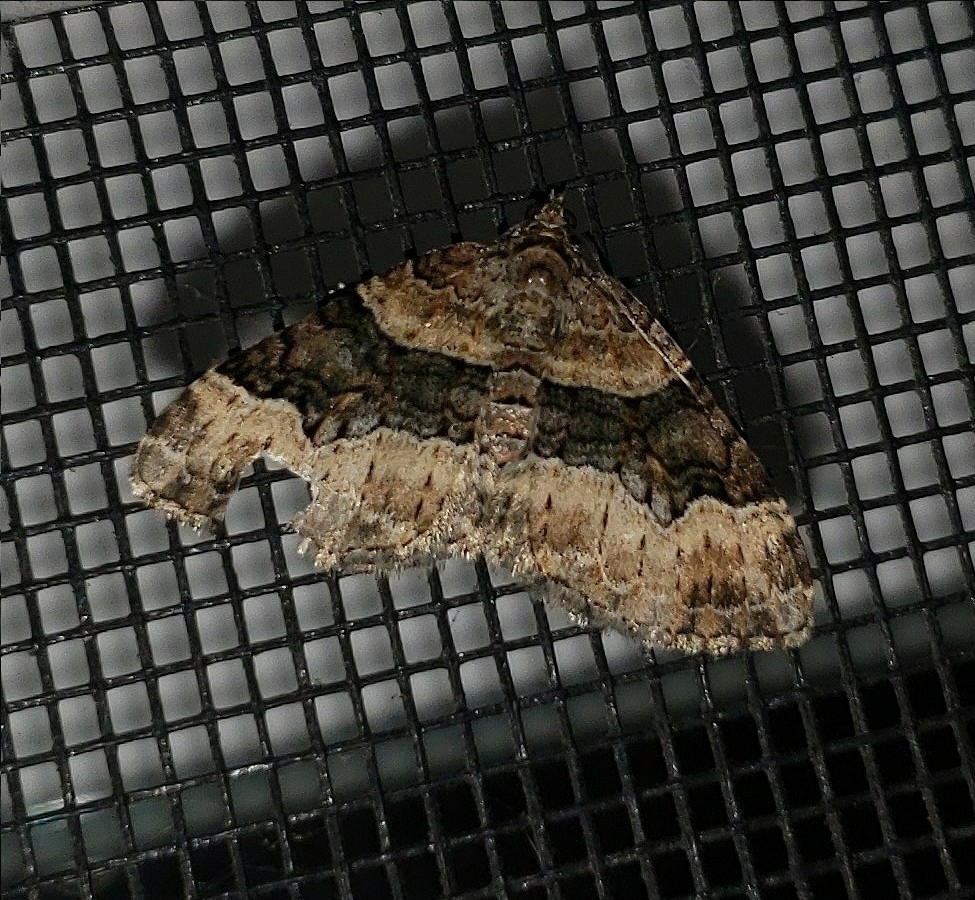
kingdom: Animalia
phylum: Arthropoda
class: Insecta
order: Lepidoptera
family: Geometridae
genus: Xanthorhoe
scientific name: Xanthorhoe lacustrata
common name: Toothed brown carpet
